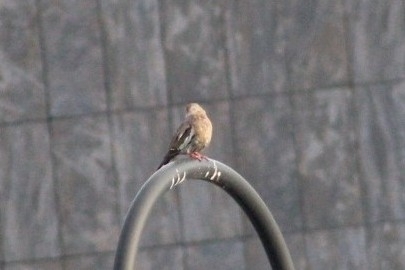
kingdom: Animalia
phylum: Chordata
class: Aves
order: Columbiformes
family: Columbidae
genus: Zenaida
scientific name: Zenaida asiatica
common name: White-winged dove
